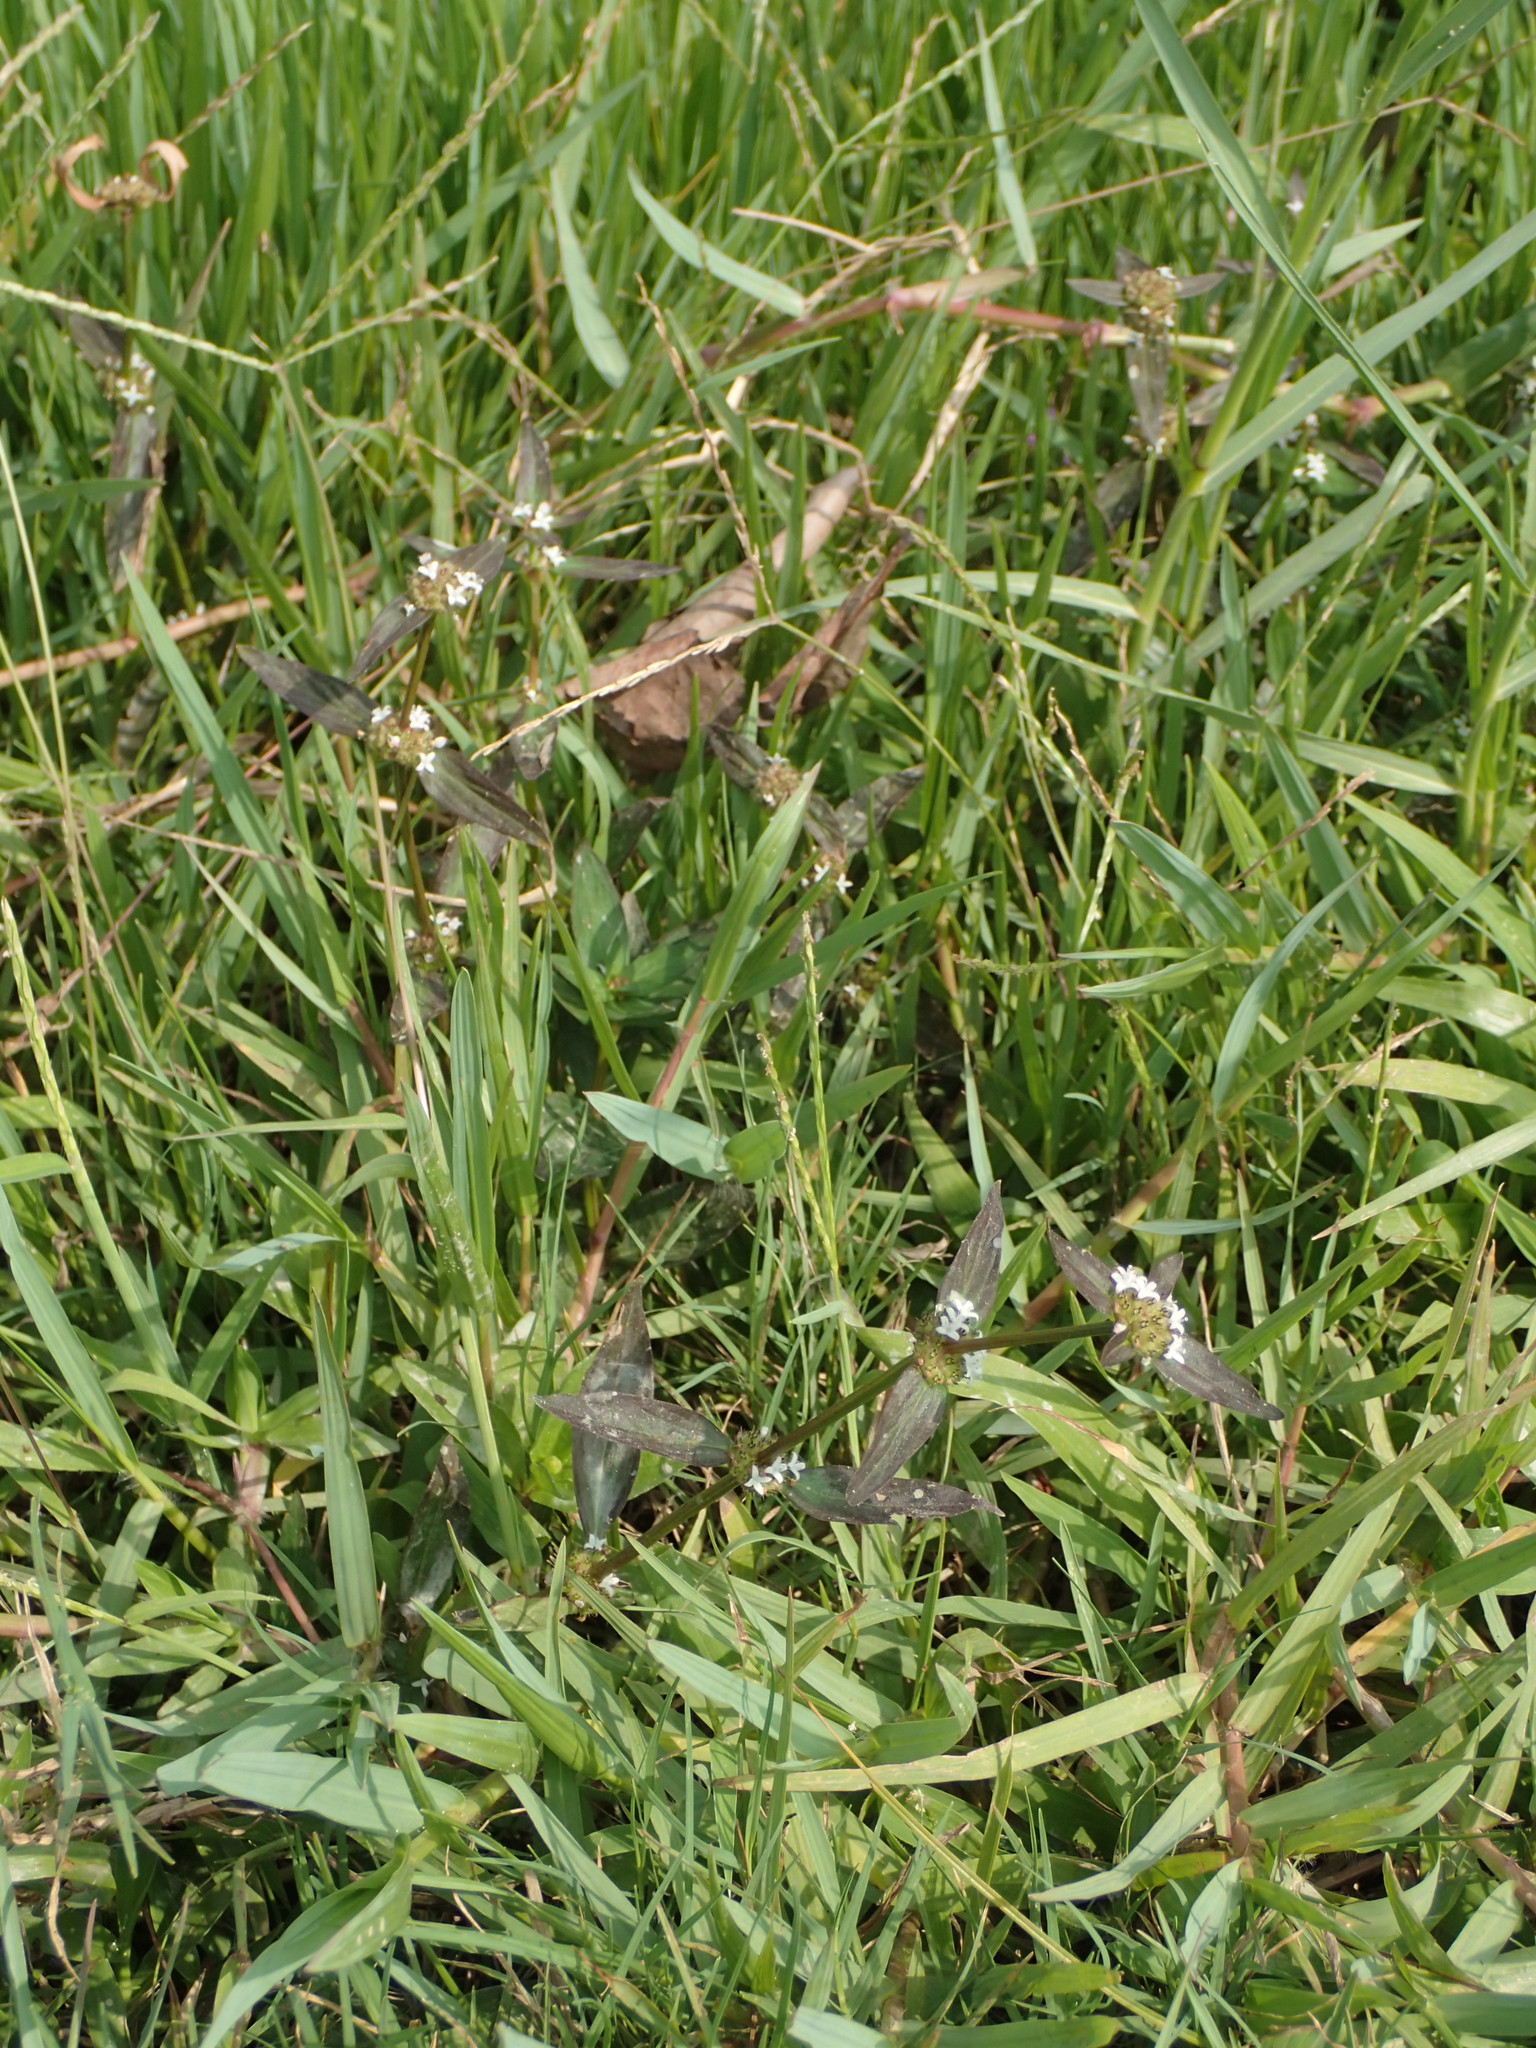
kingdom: Plantae
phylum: Tracheophyta
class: Magnoliopsida
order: Gentianales
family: Rubiaceae
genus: Spermacoce
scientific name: Spermacoce remota
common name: Woodland false buttonweed
